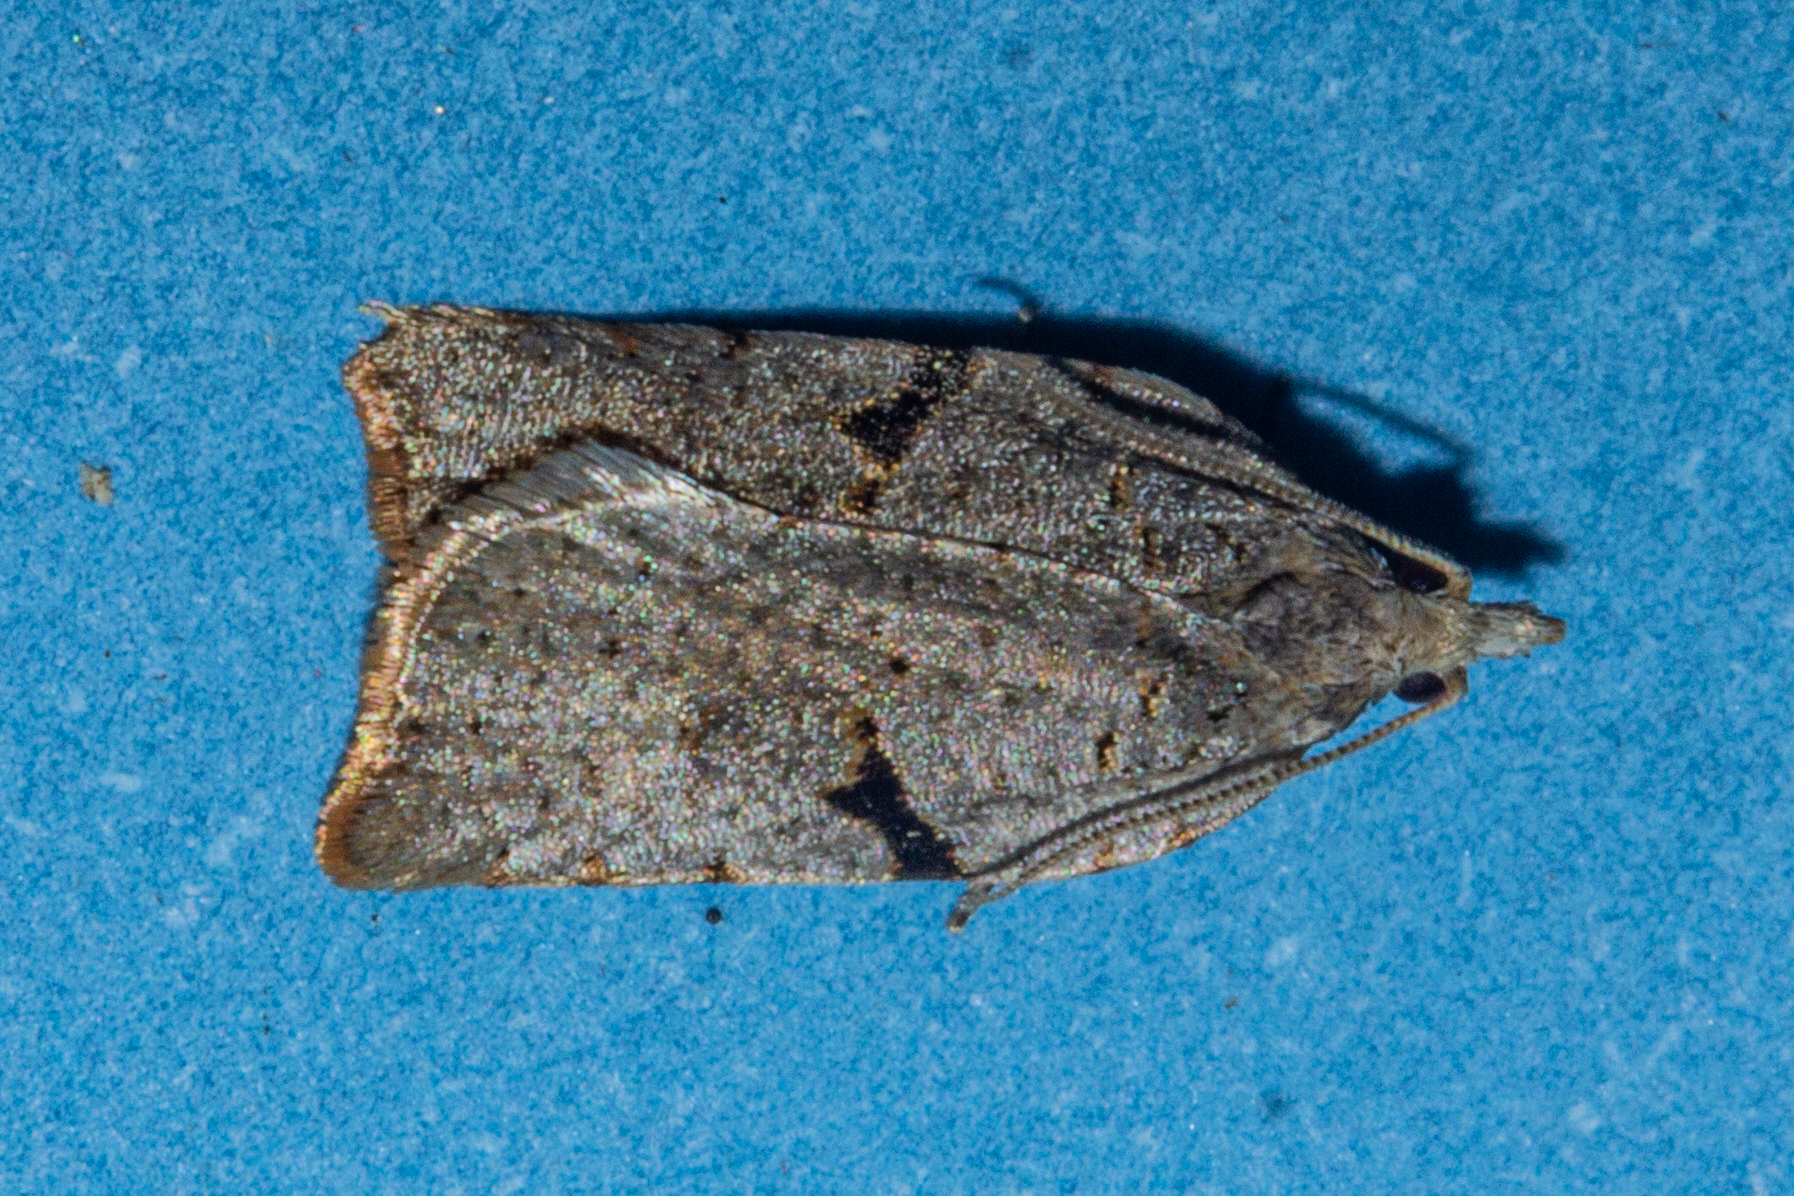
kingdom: Animalia
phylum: Arthropoda
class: Insecta
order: Lepidoptera
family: Tortricidae
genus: Leucotenes
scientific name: Leucotenes coprosmae
